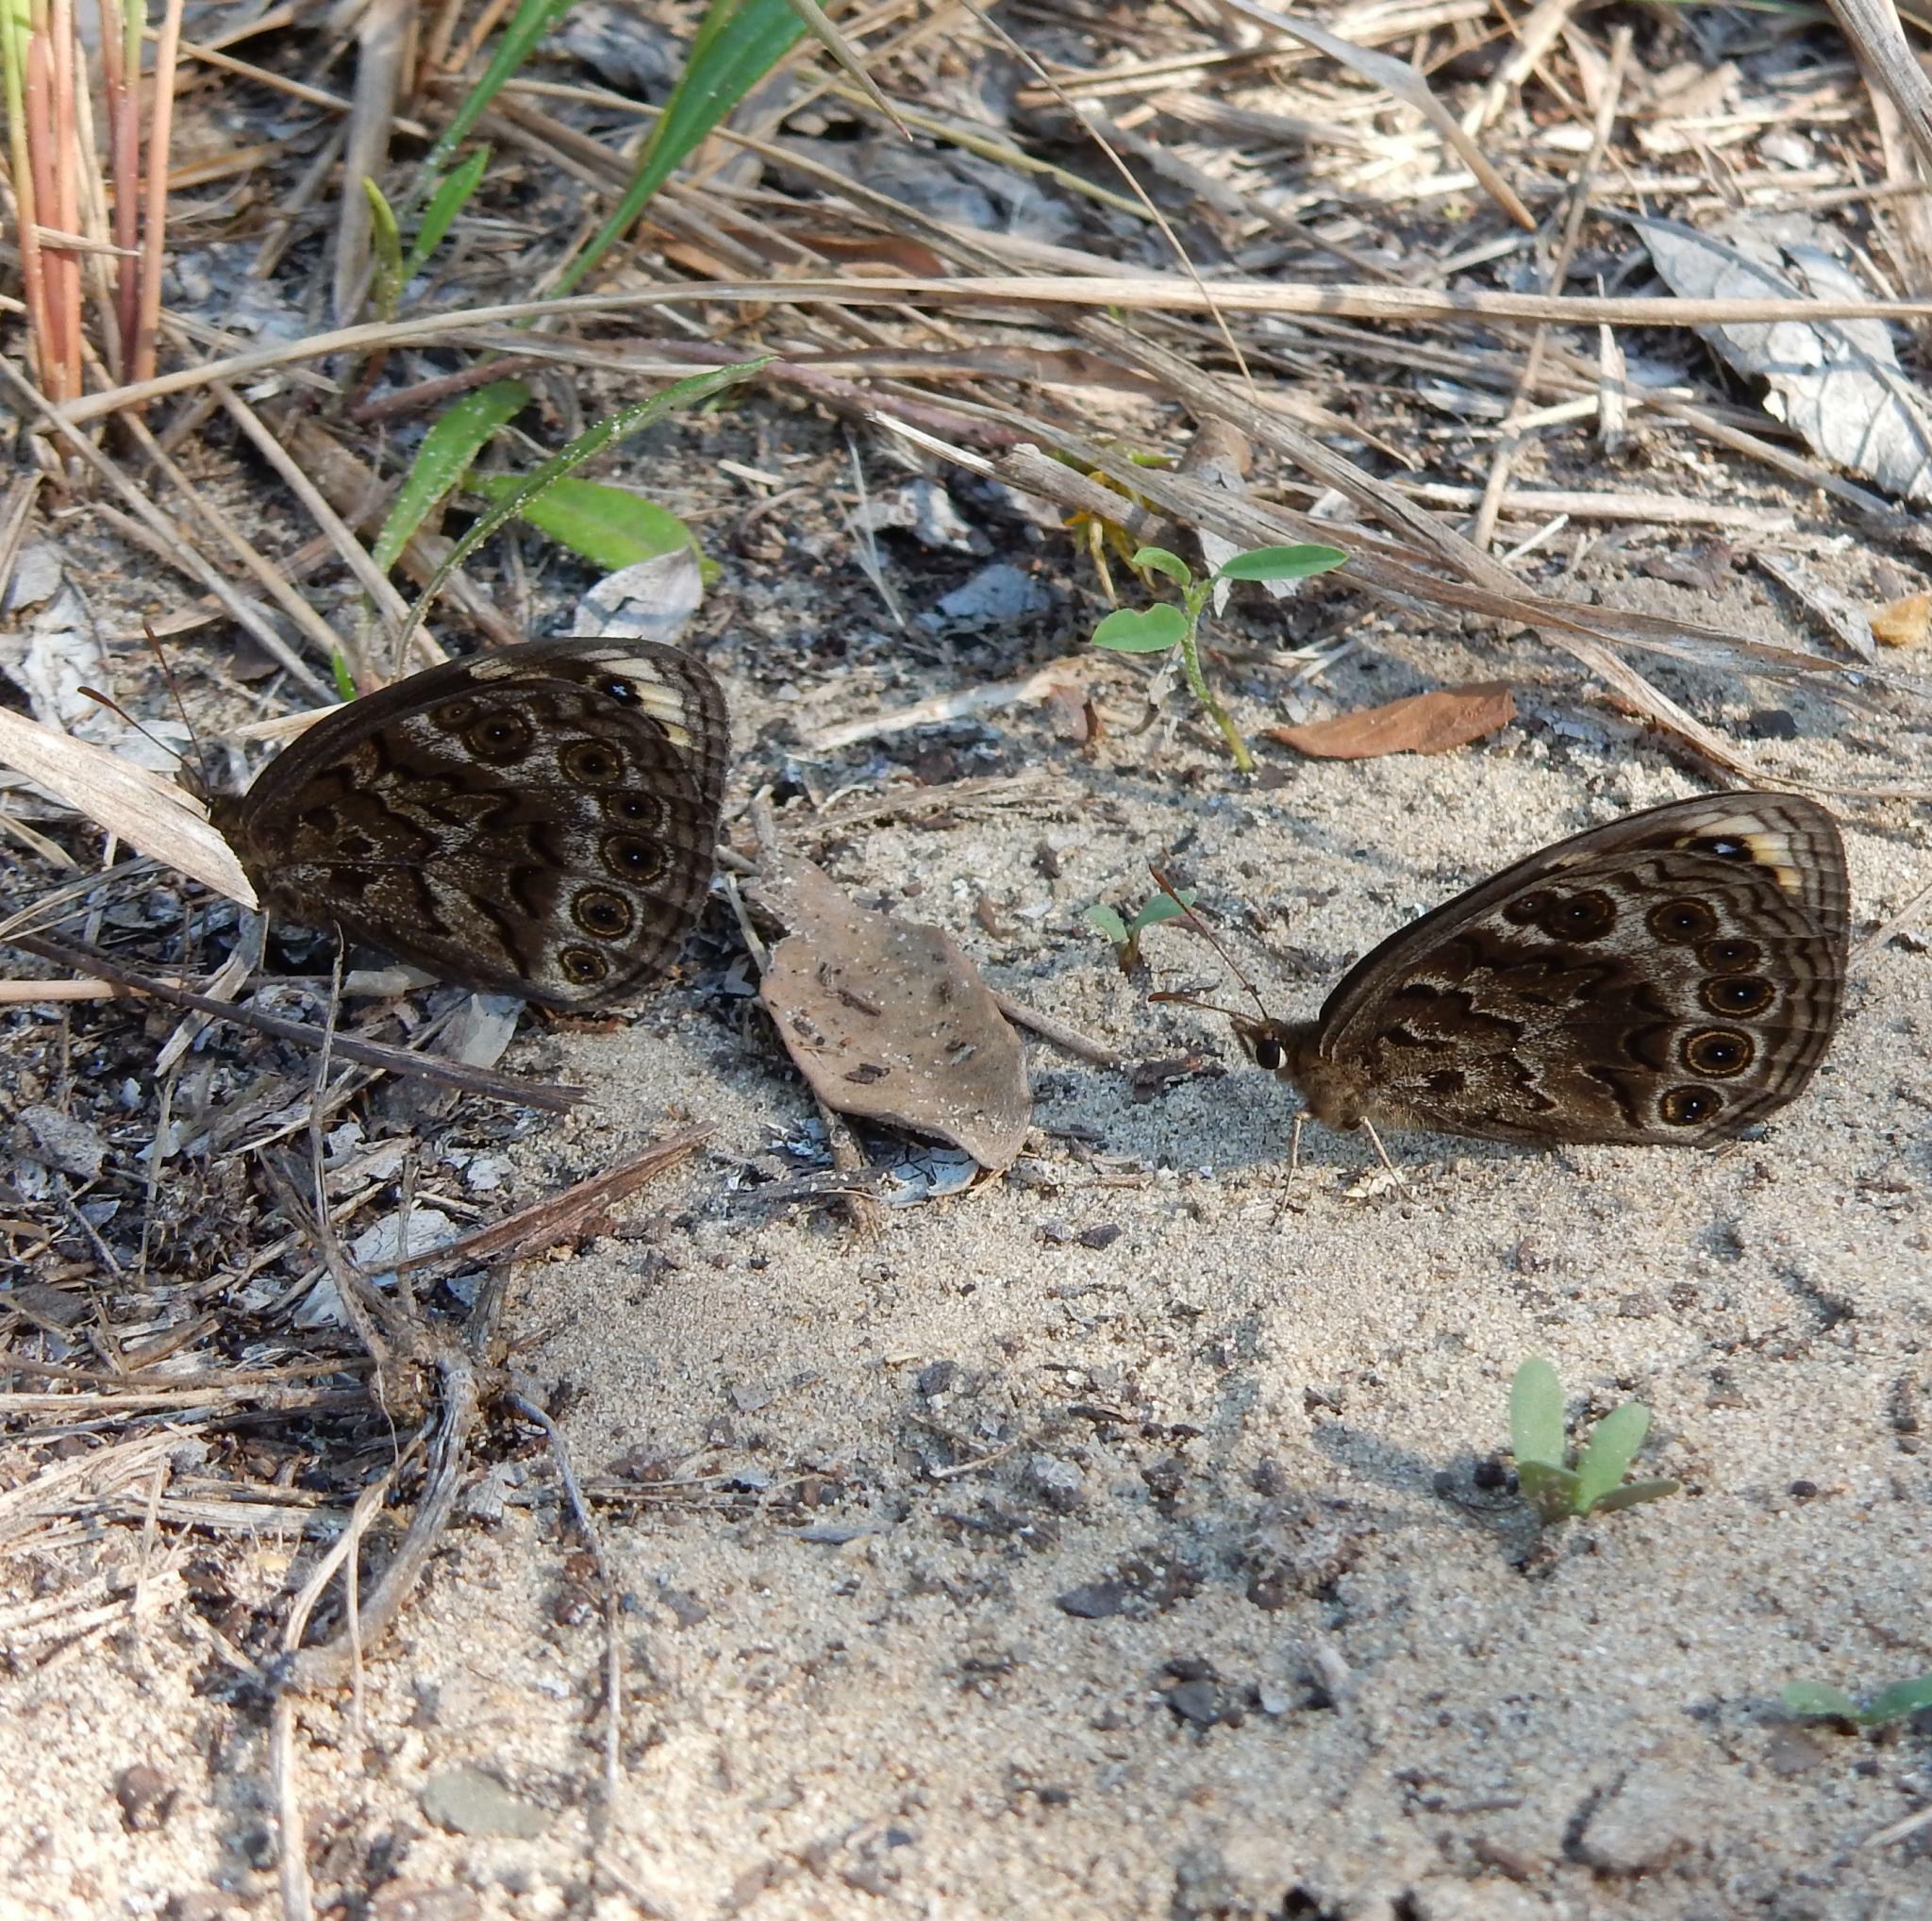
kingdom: Animalia
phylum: Arthropoda
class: Insecta
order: Lepidoptera
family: Nymphalidae
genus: Dira
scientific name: Dira clytus
